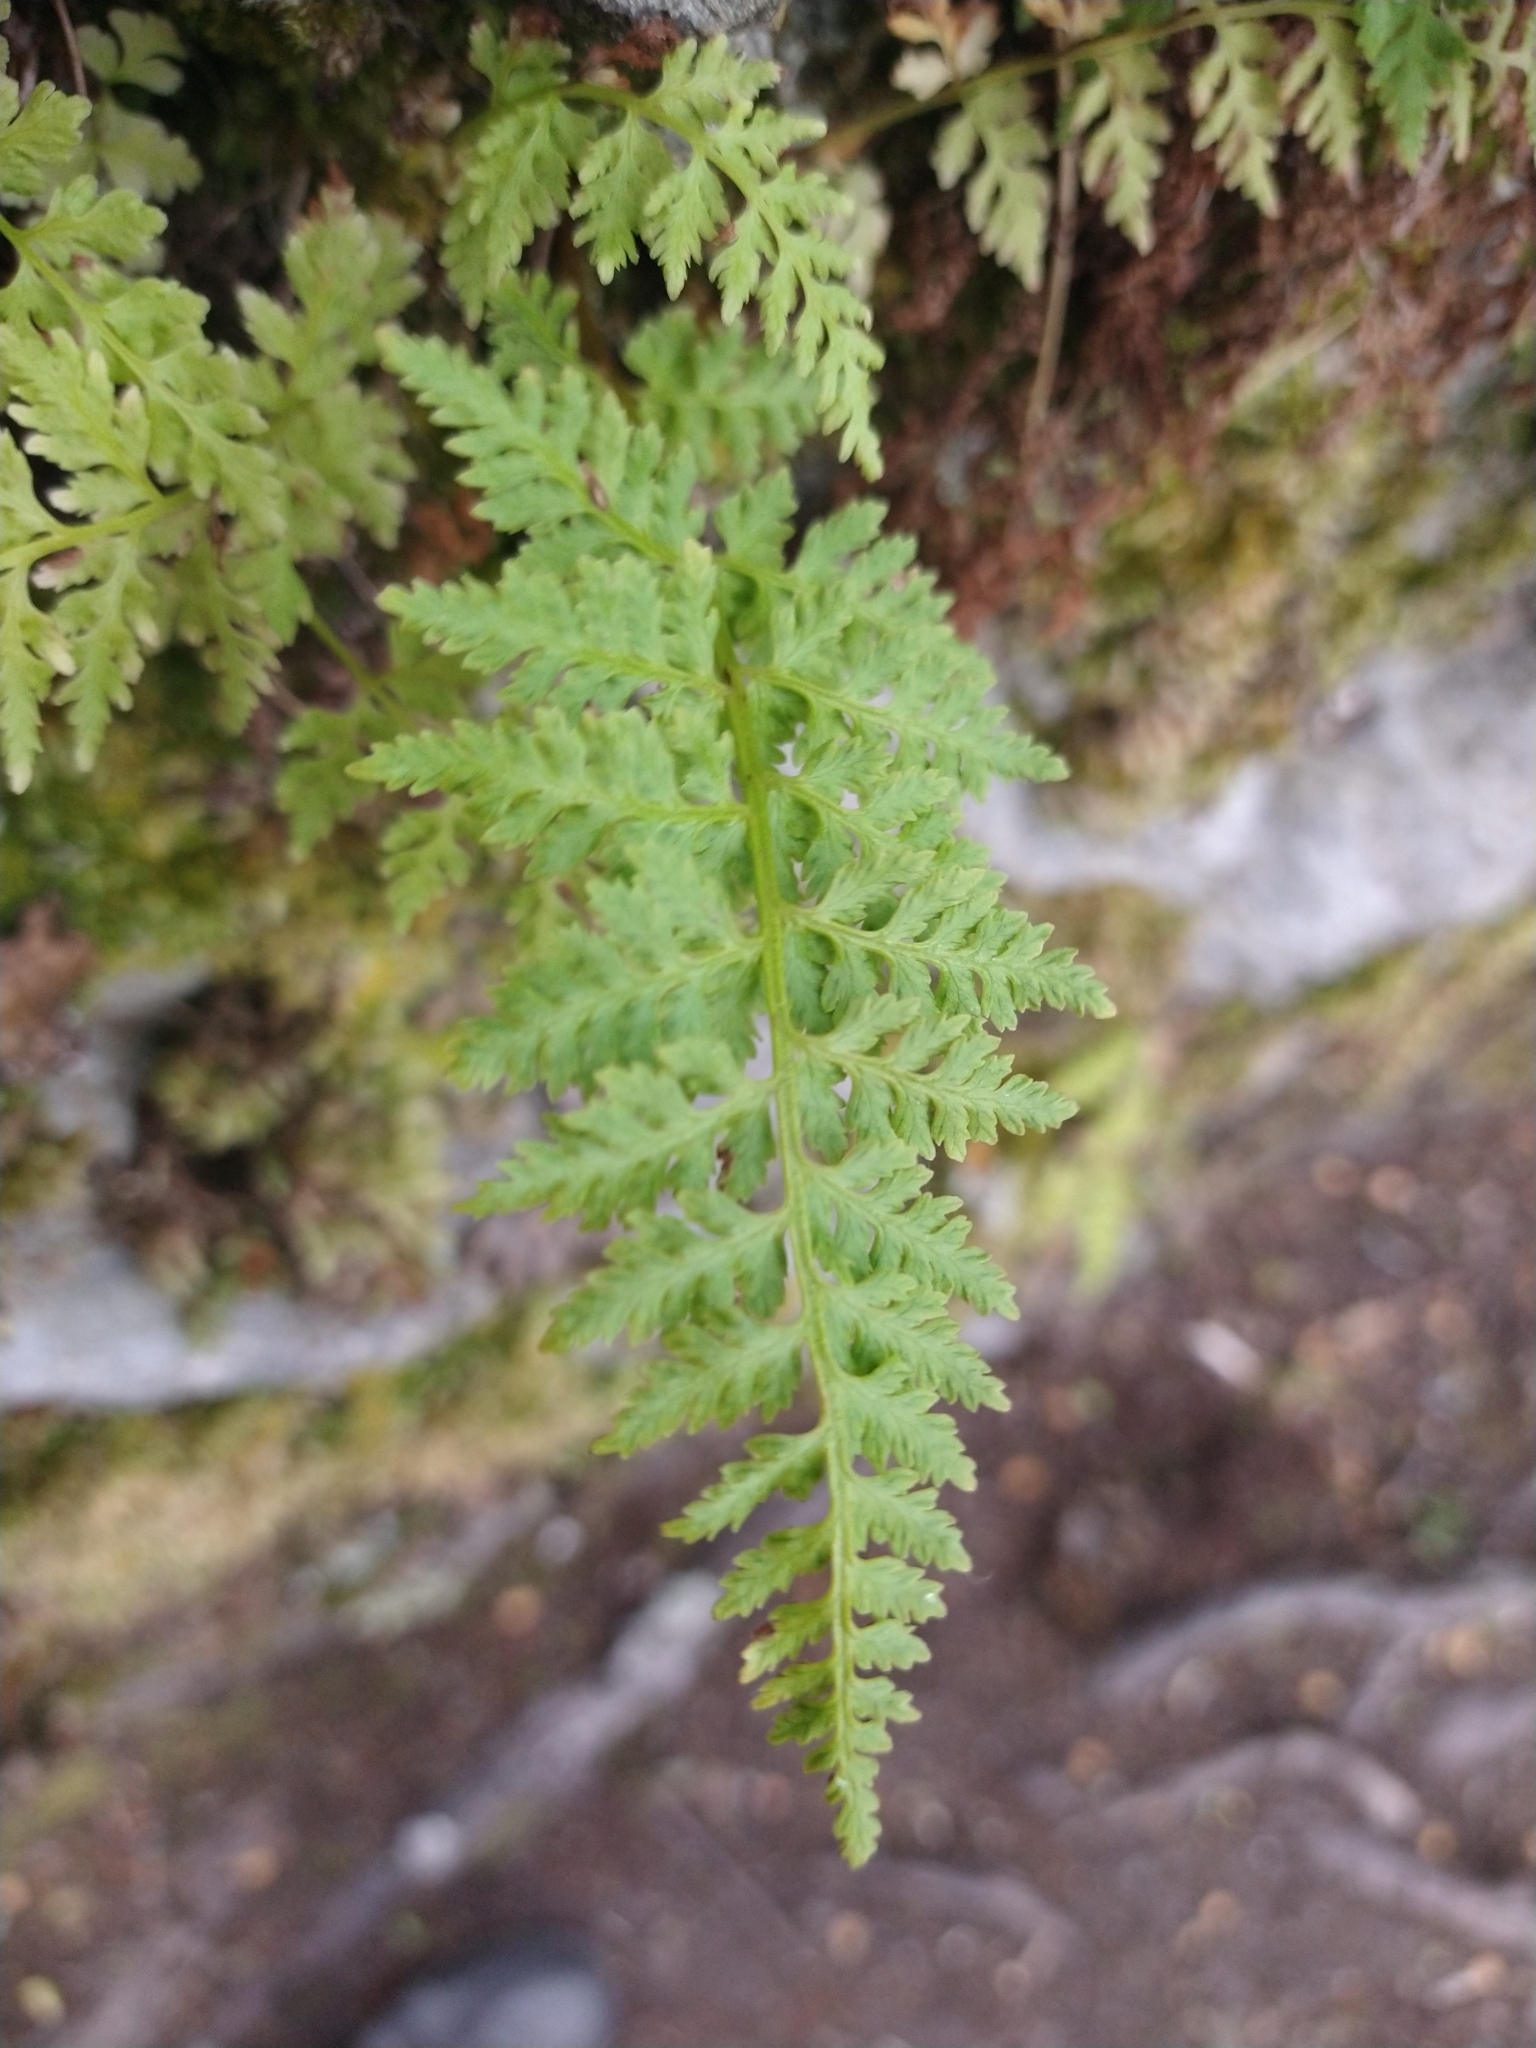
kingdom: Plantae
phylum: Tracheophyta
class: Polypodiopsida
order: Polypodiales
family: Cystopteridaceae
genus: Cystopteris
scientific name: Cystopteris fragilis
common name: Brittle bladder fern
